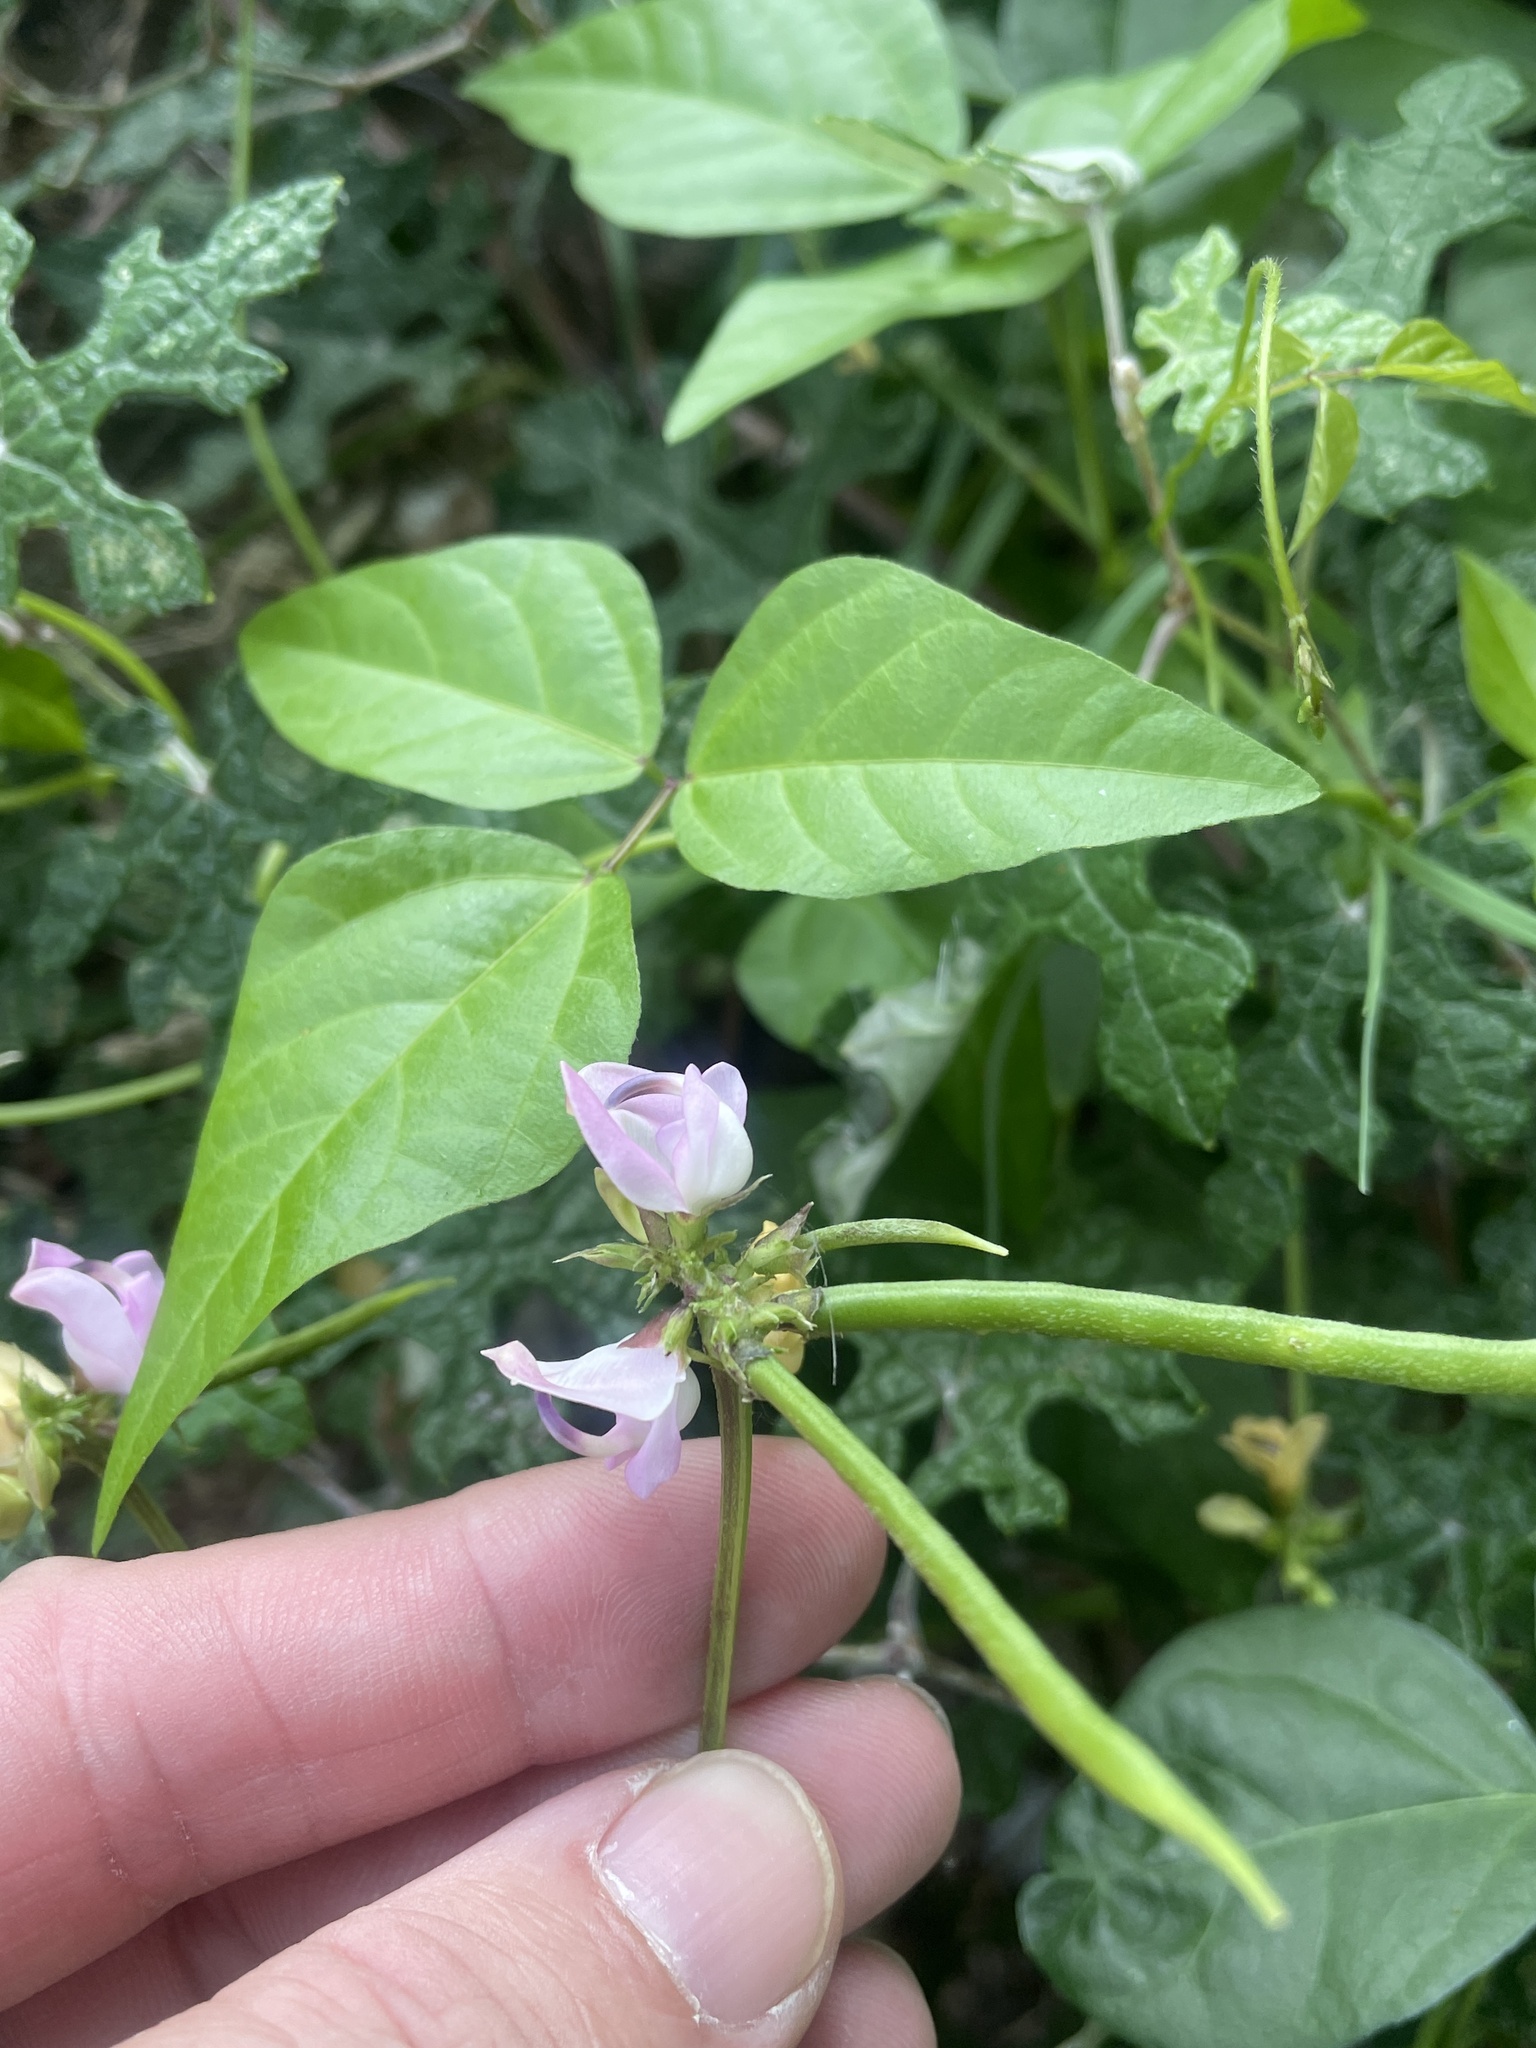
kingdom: Plantae
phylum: Tracheophyta
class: Magnoliopsida
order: Fabales
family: Fabaceae
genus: Strophostyles
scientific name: Strophostyles helvola
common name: Trailing wild bean
